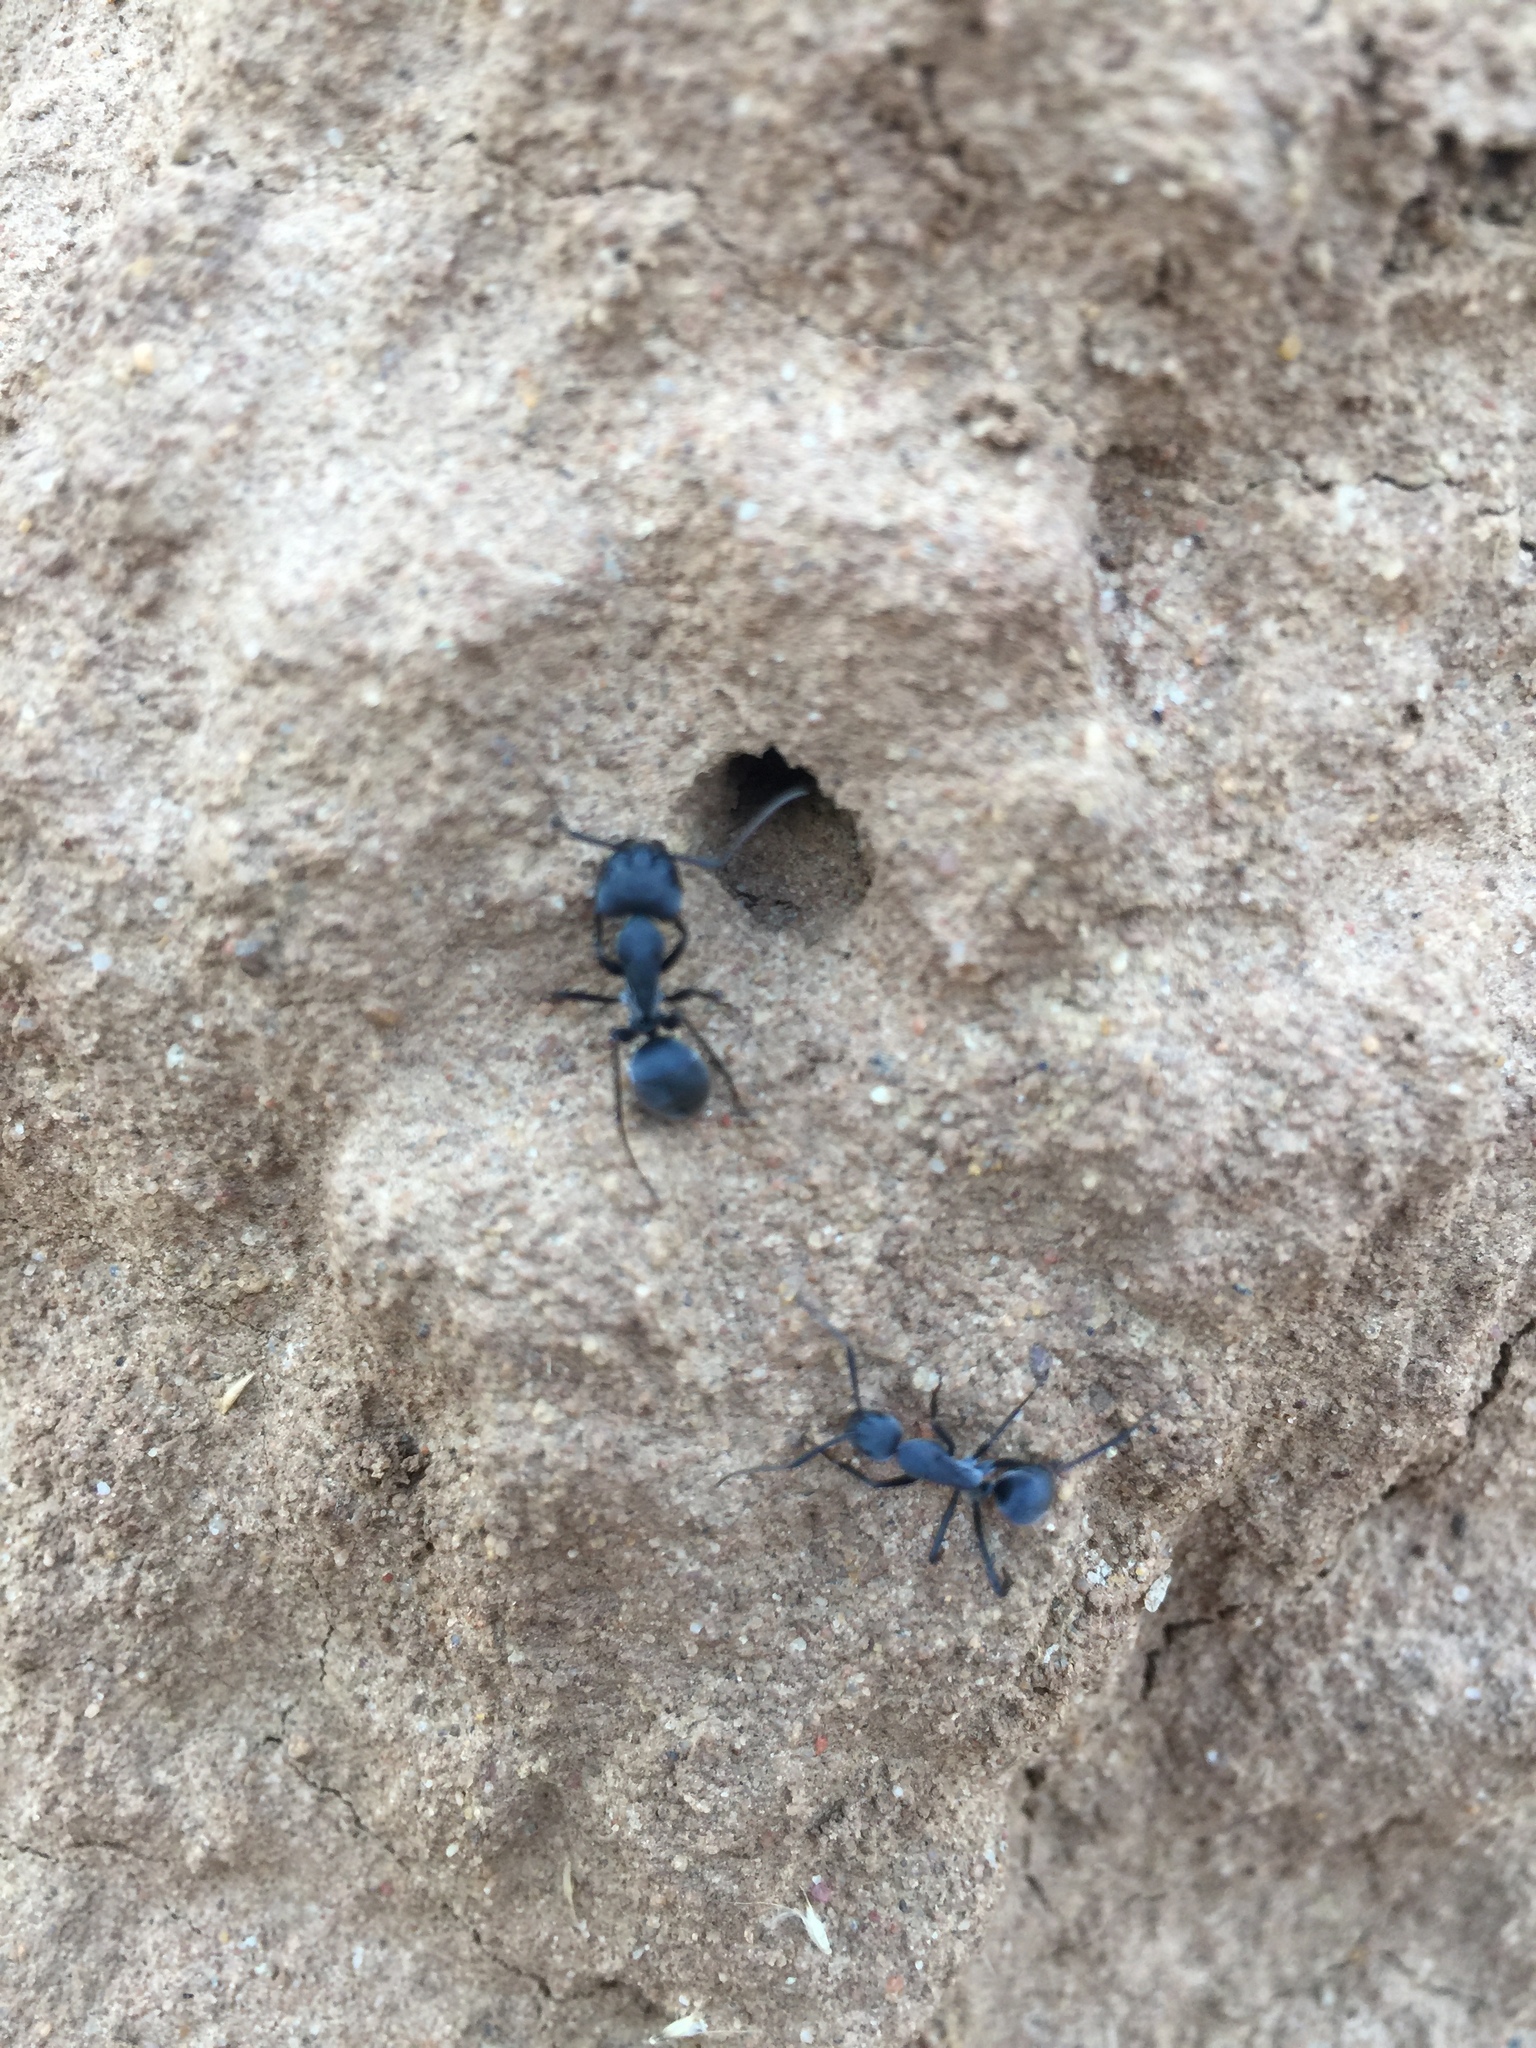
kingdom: Animalia
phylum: Arthropoda
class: Insecta
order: Hymenoptera
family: Formicidae
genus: Camponotus
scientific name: Camponotus eugeniae
